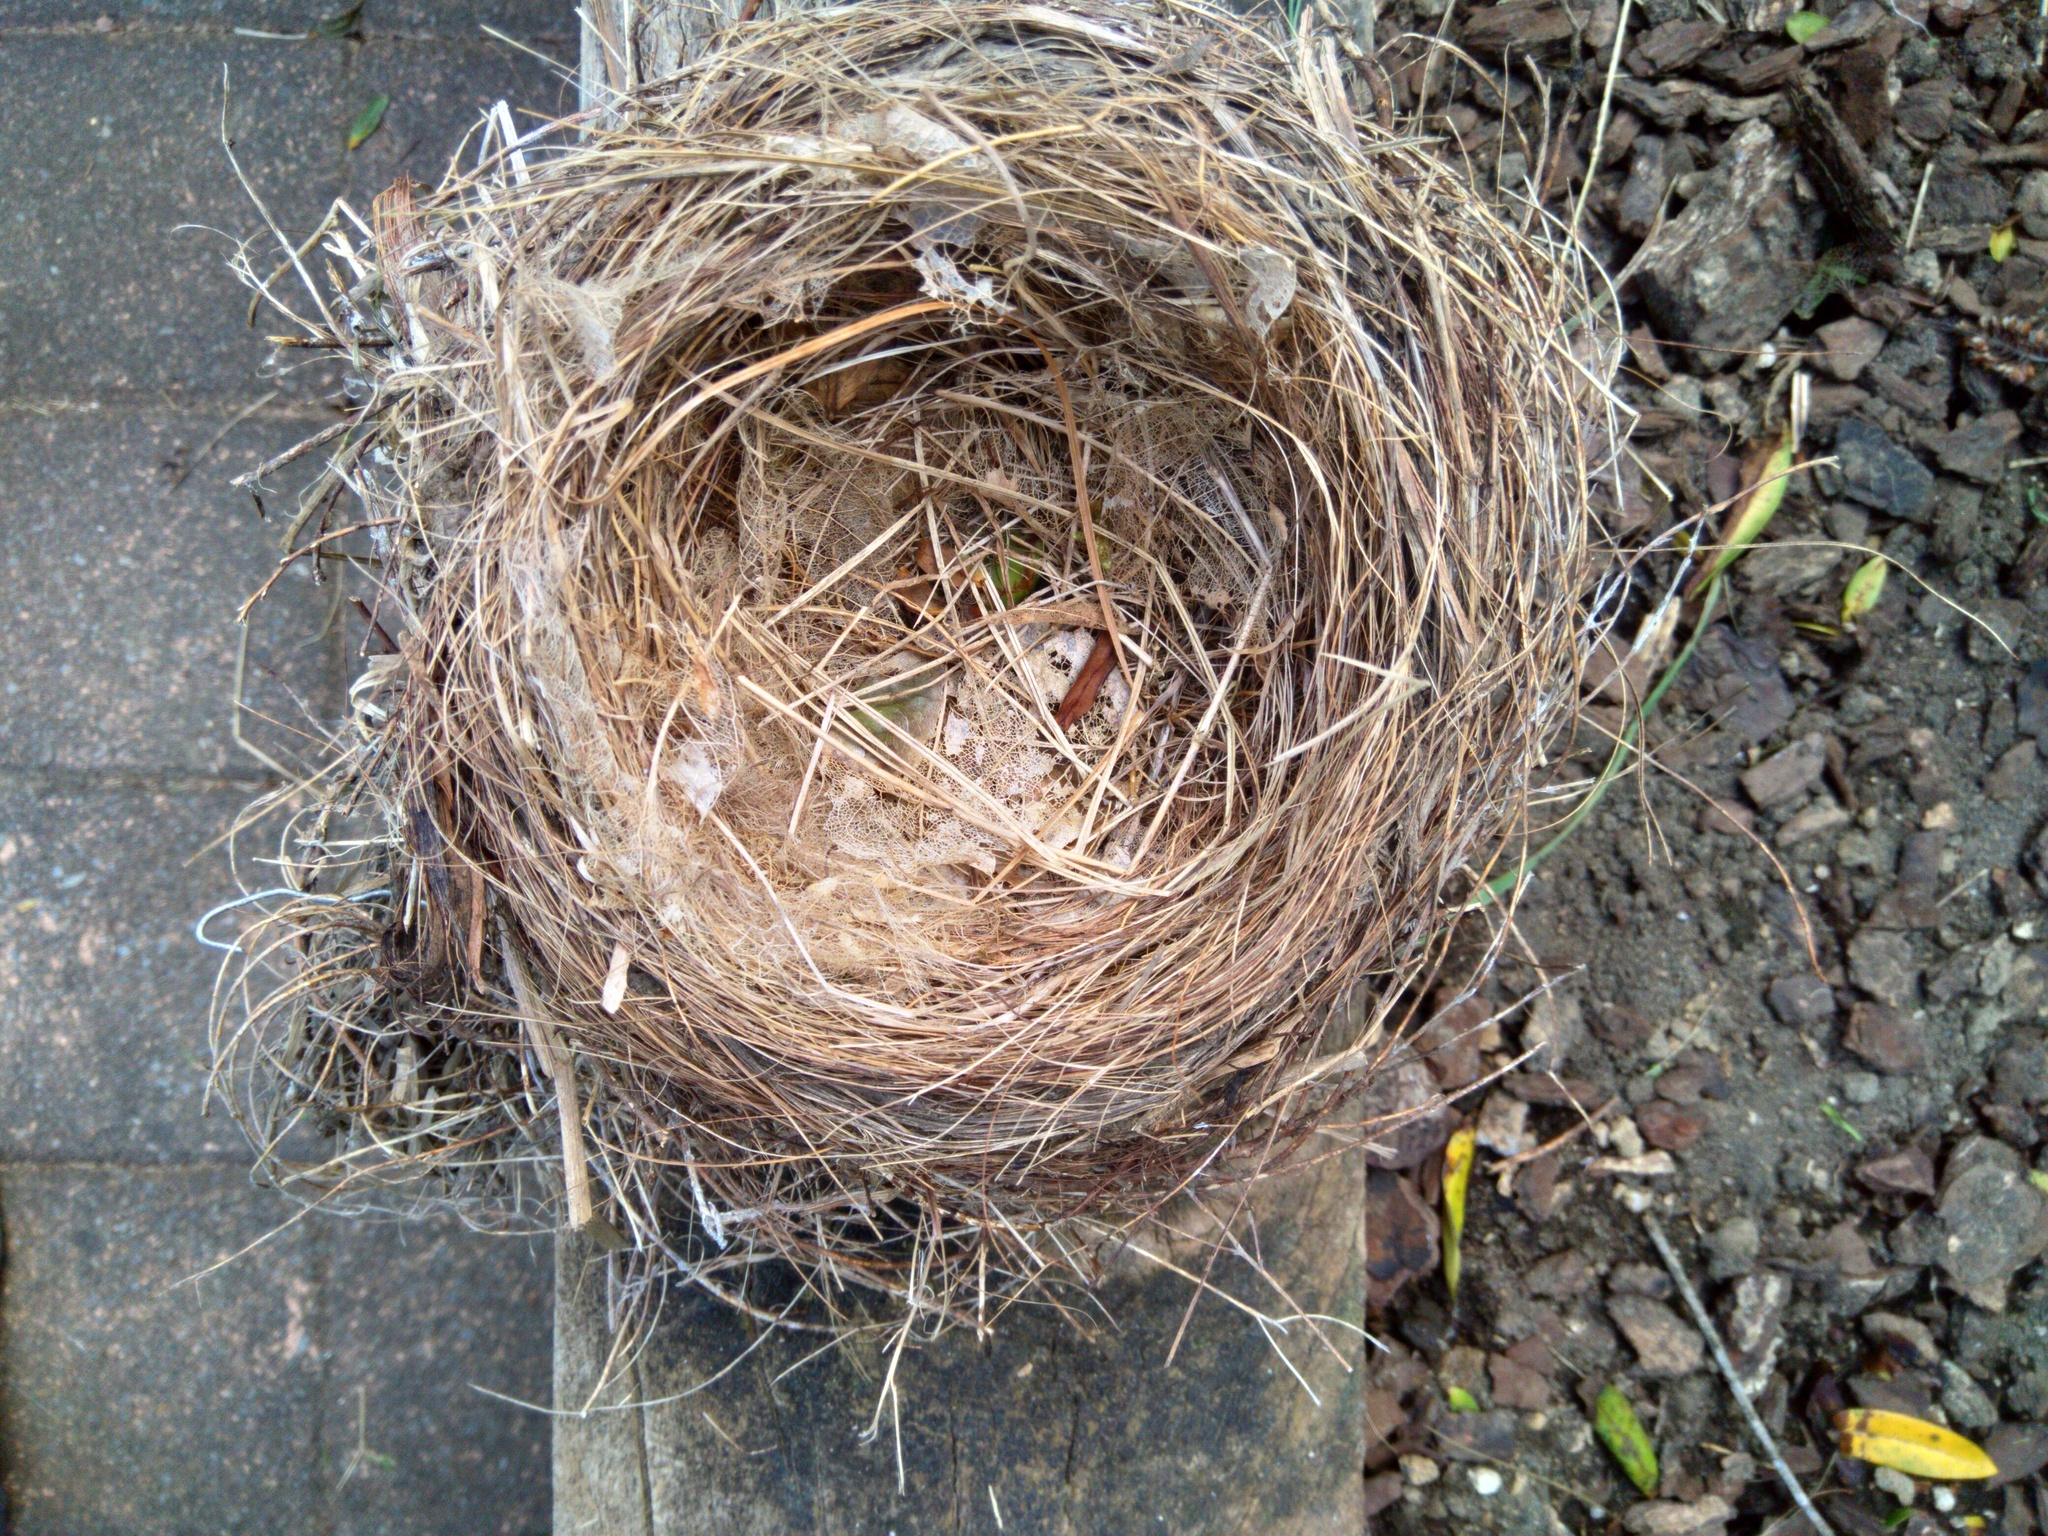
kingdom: Animalia
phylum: Chordata
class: Aves
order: Passeriformes
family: Turdidae
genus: Turdus
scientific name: Turdus merula
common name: Common blackbird
